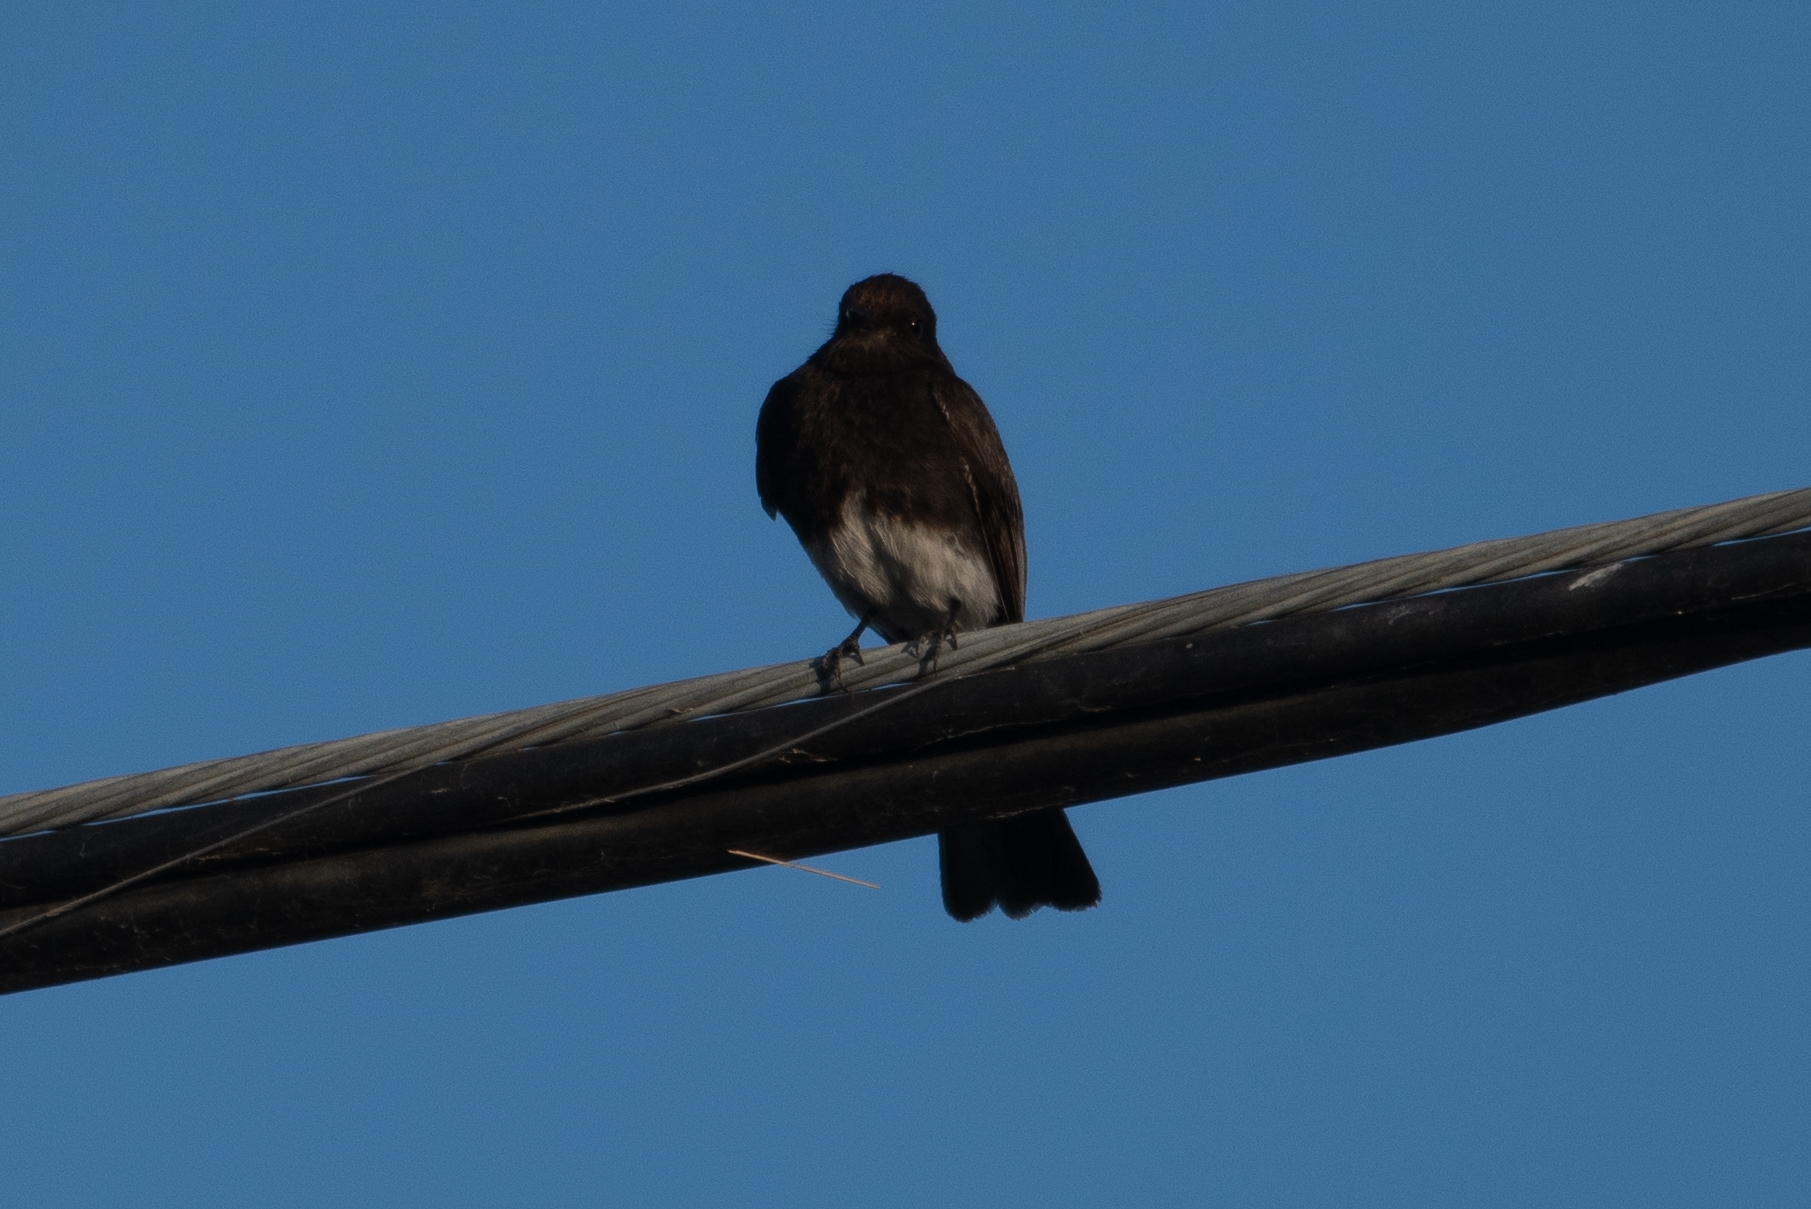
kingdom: Animalia
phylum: Chordata
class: Aves
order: Passeriformes
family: Tyrannidae
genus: Sayornis
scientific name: Sayornis nigricans
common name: Black phoebe
